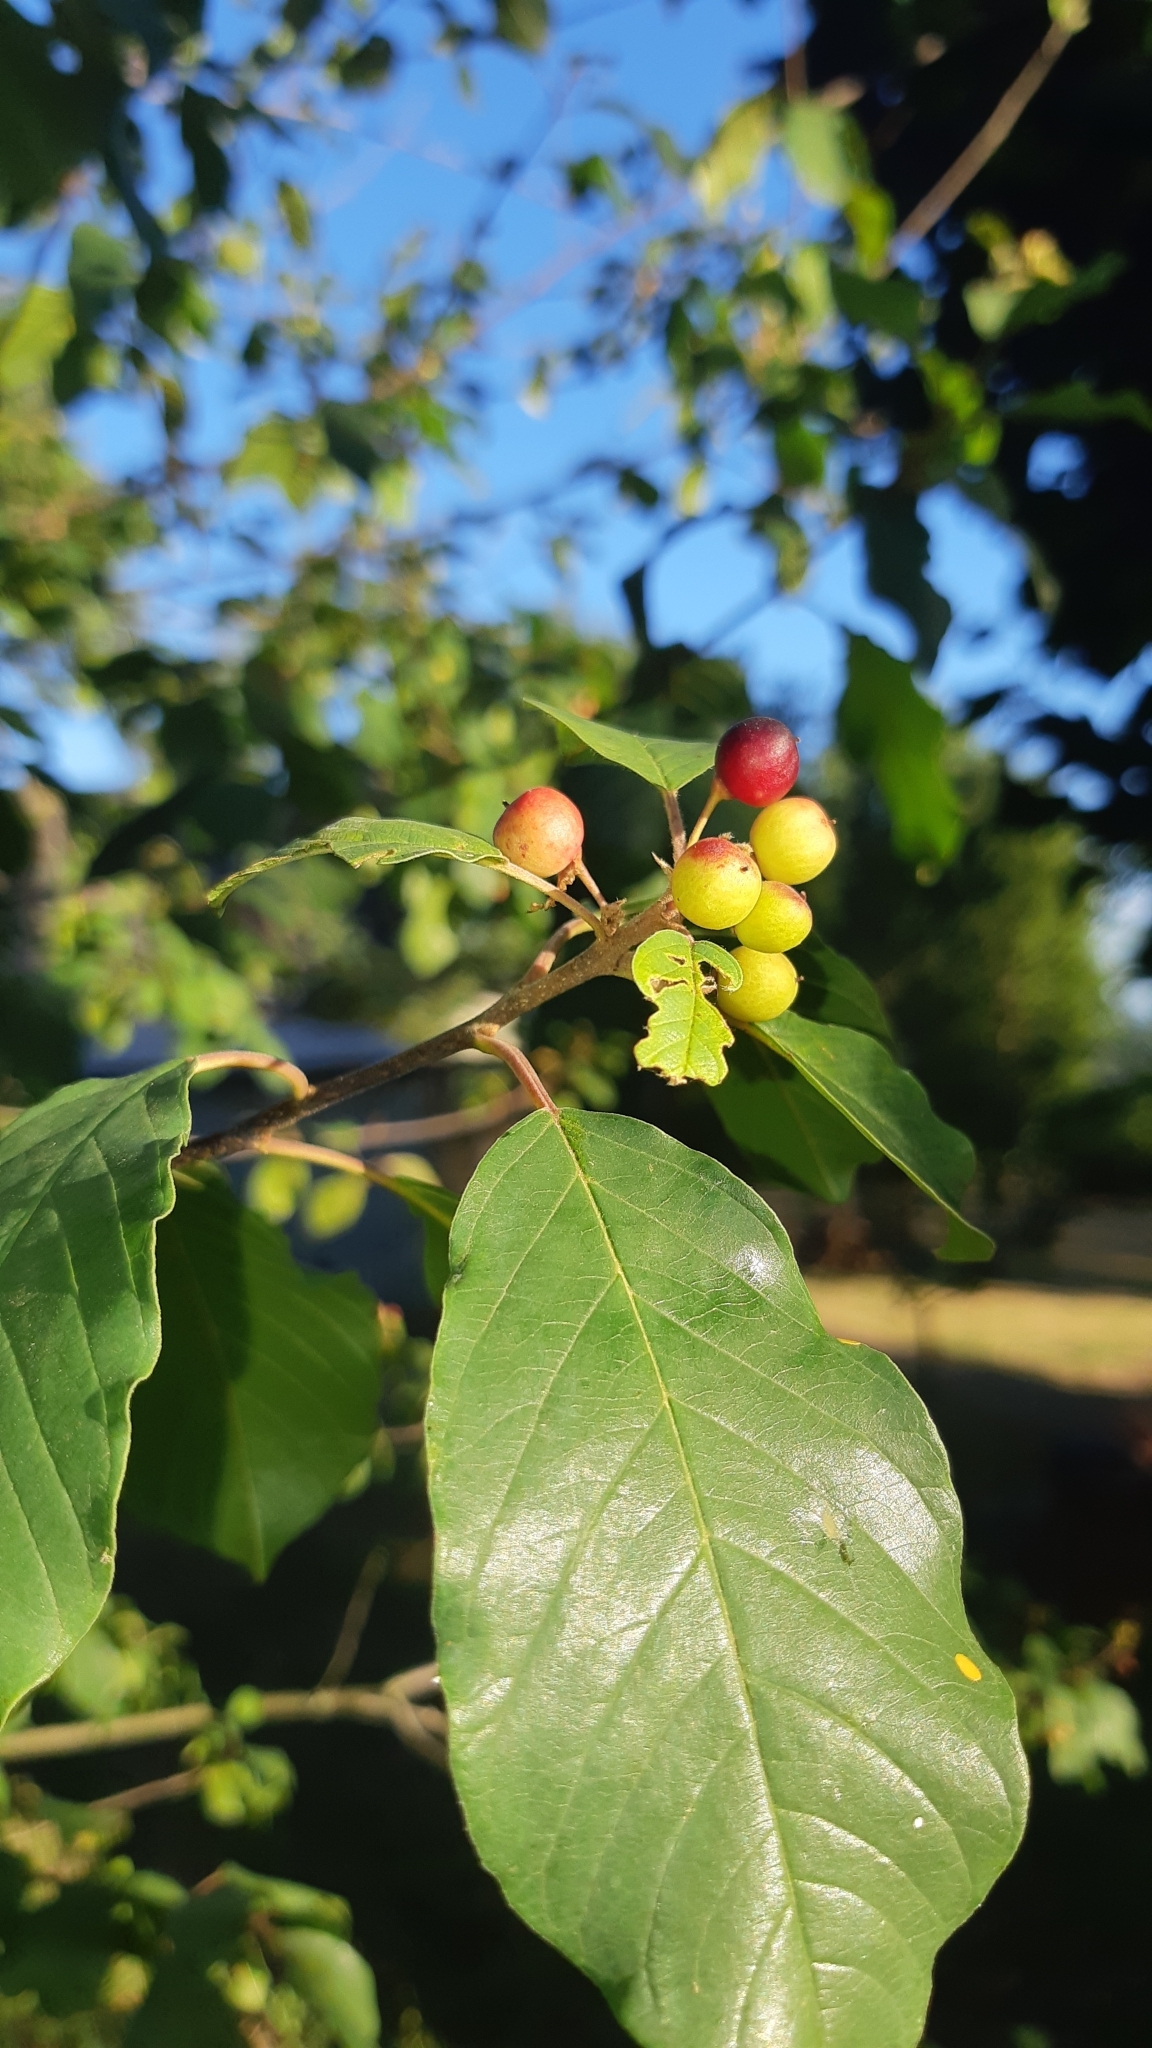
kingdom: Plantae
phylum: Tracheophyta
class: Magnoliopsida
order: Rosales
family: Rhamnaceae
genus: Frangula
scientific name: Frangula alnus
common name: Alder buckthorn
